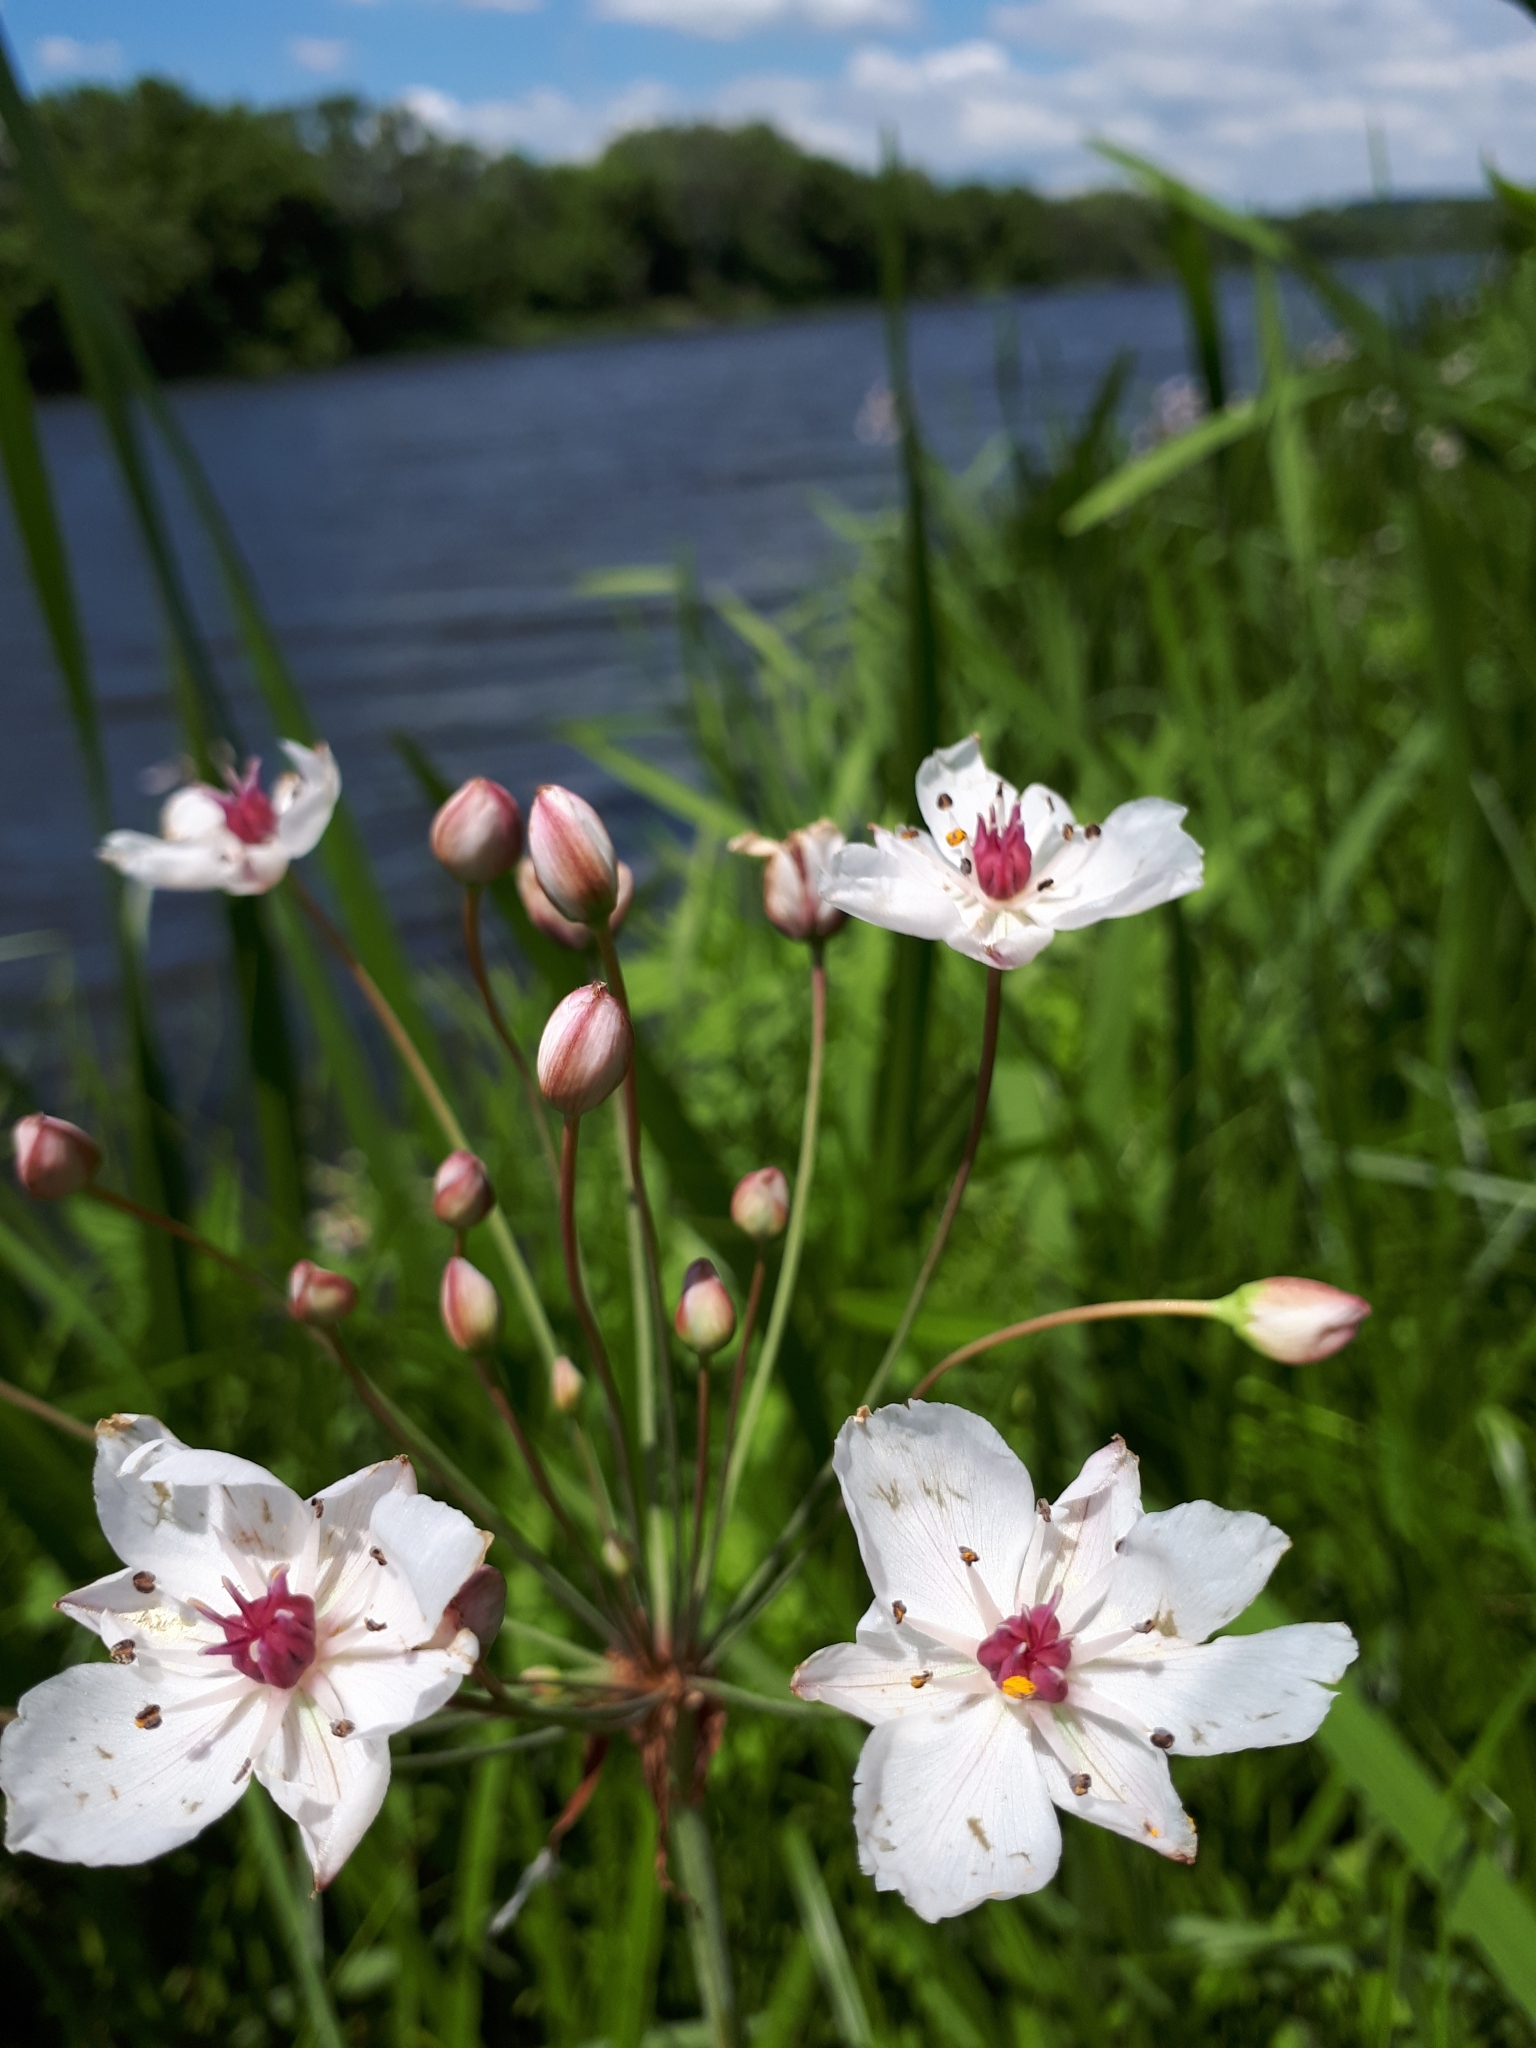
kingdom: Plantae
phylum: Tracheophyta
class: Liliopsida
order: Alismatales
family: Butomaceae
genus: Butomus
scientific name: Butomus umbellatus
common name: Flowering-rush
